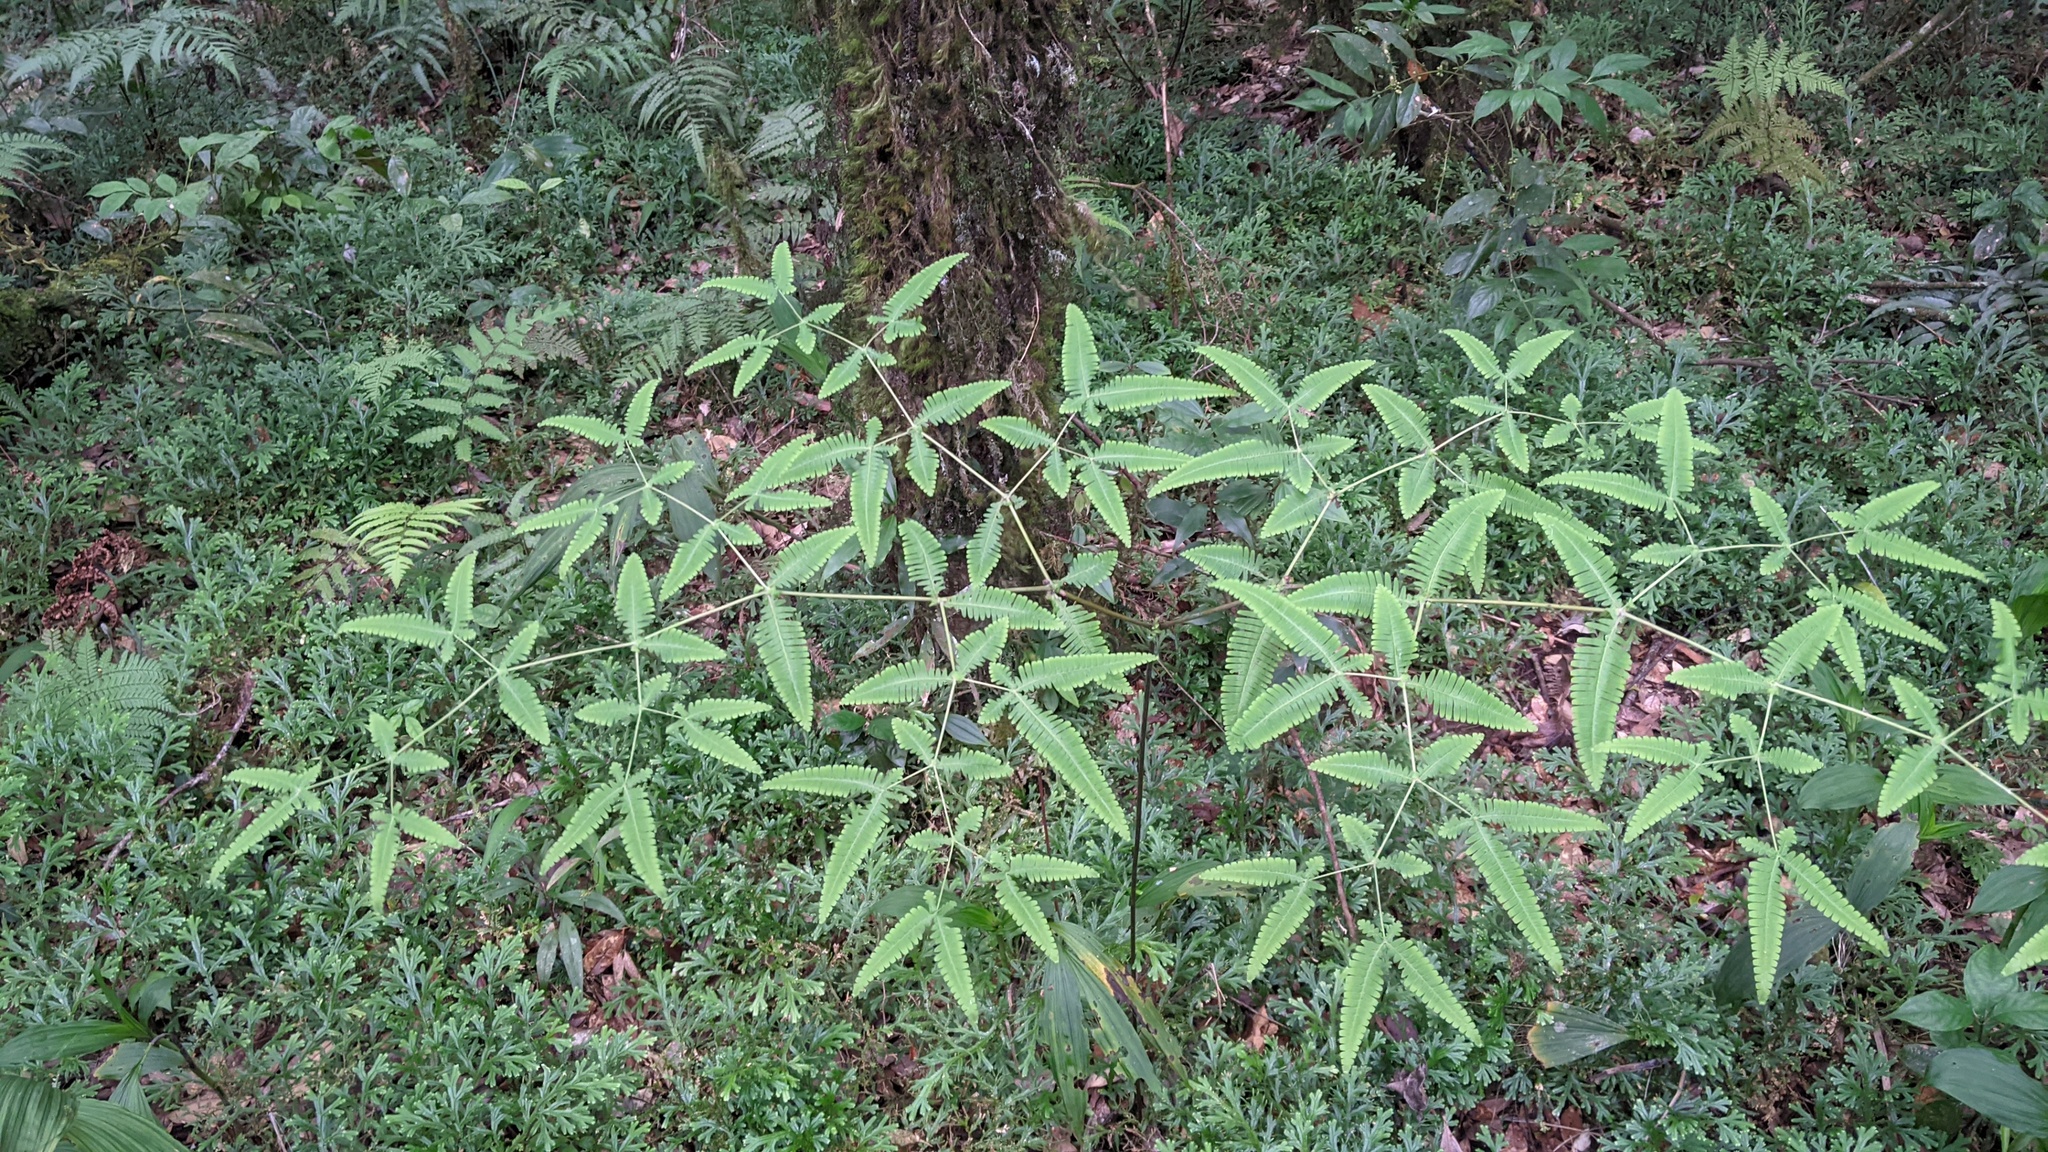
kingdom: Plantae
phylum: Tracheophyta
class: Polypodiopsida
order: Gleicheniales
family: Gleicheniaceae
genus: Dicranopteris
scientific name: Dicranopteris tetraphylla
